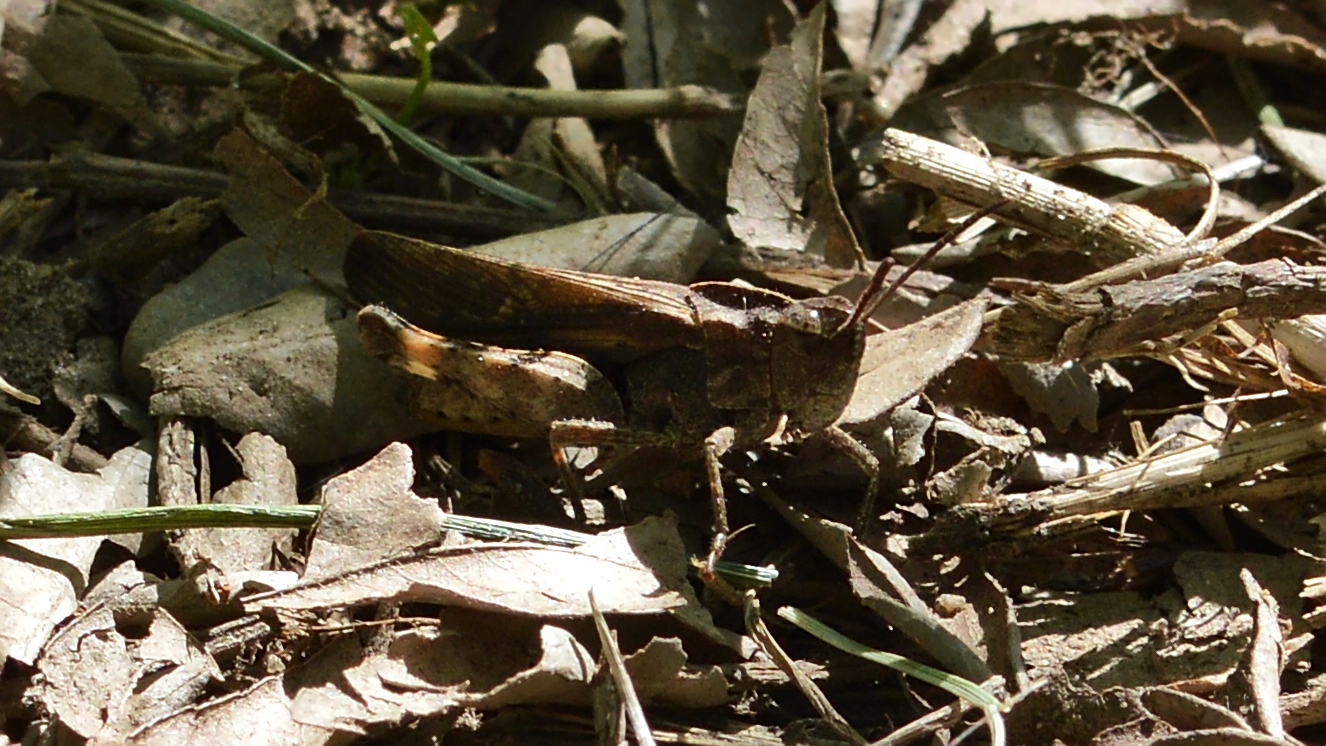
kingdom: Animalia
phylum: Arthropoda
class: Insecta
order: Orthoptera
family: Acrididae
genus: Chortophaga
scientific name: Chortophaga viridifasciata
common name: Green-striped grasshopper
